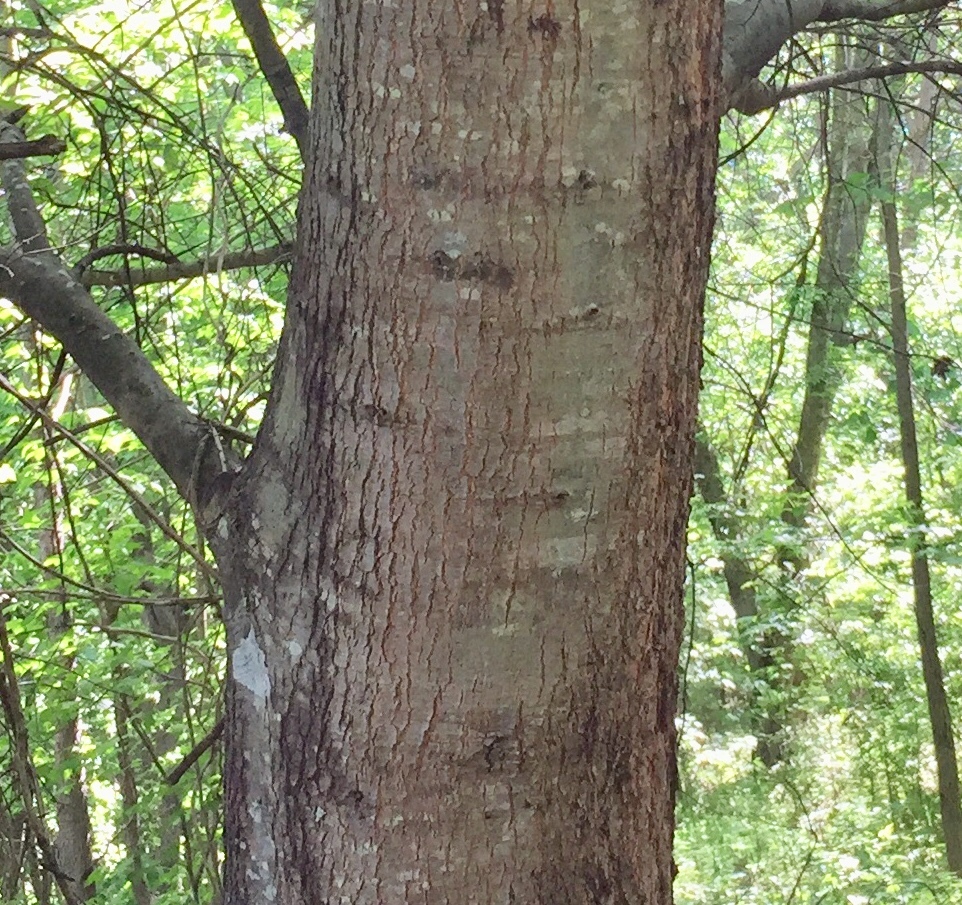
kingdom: Plantae
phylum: Tracheophyta
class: Magnoliopsida
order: Fagales
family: Fagaceae
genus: Quercus
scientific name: Quercus nigra
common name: Water oak
